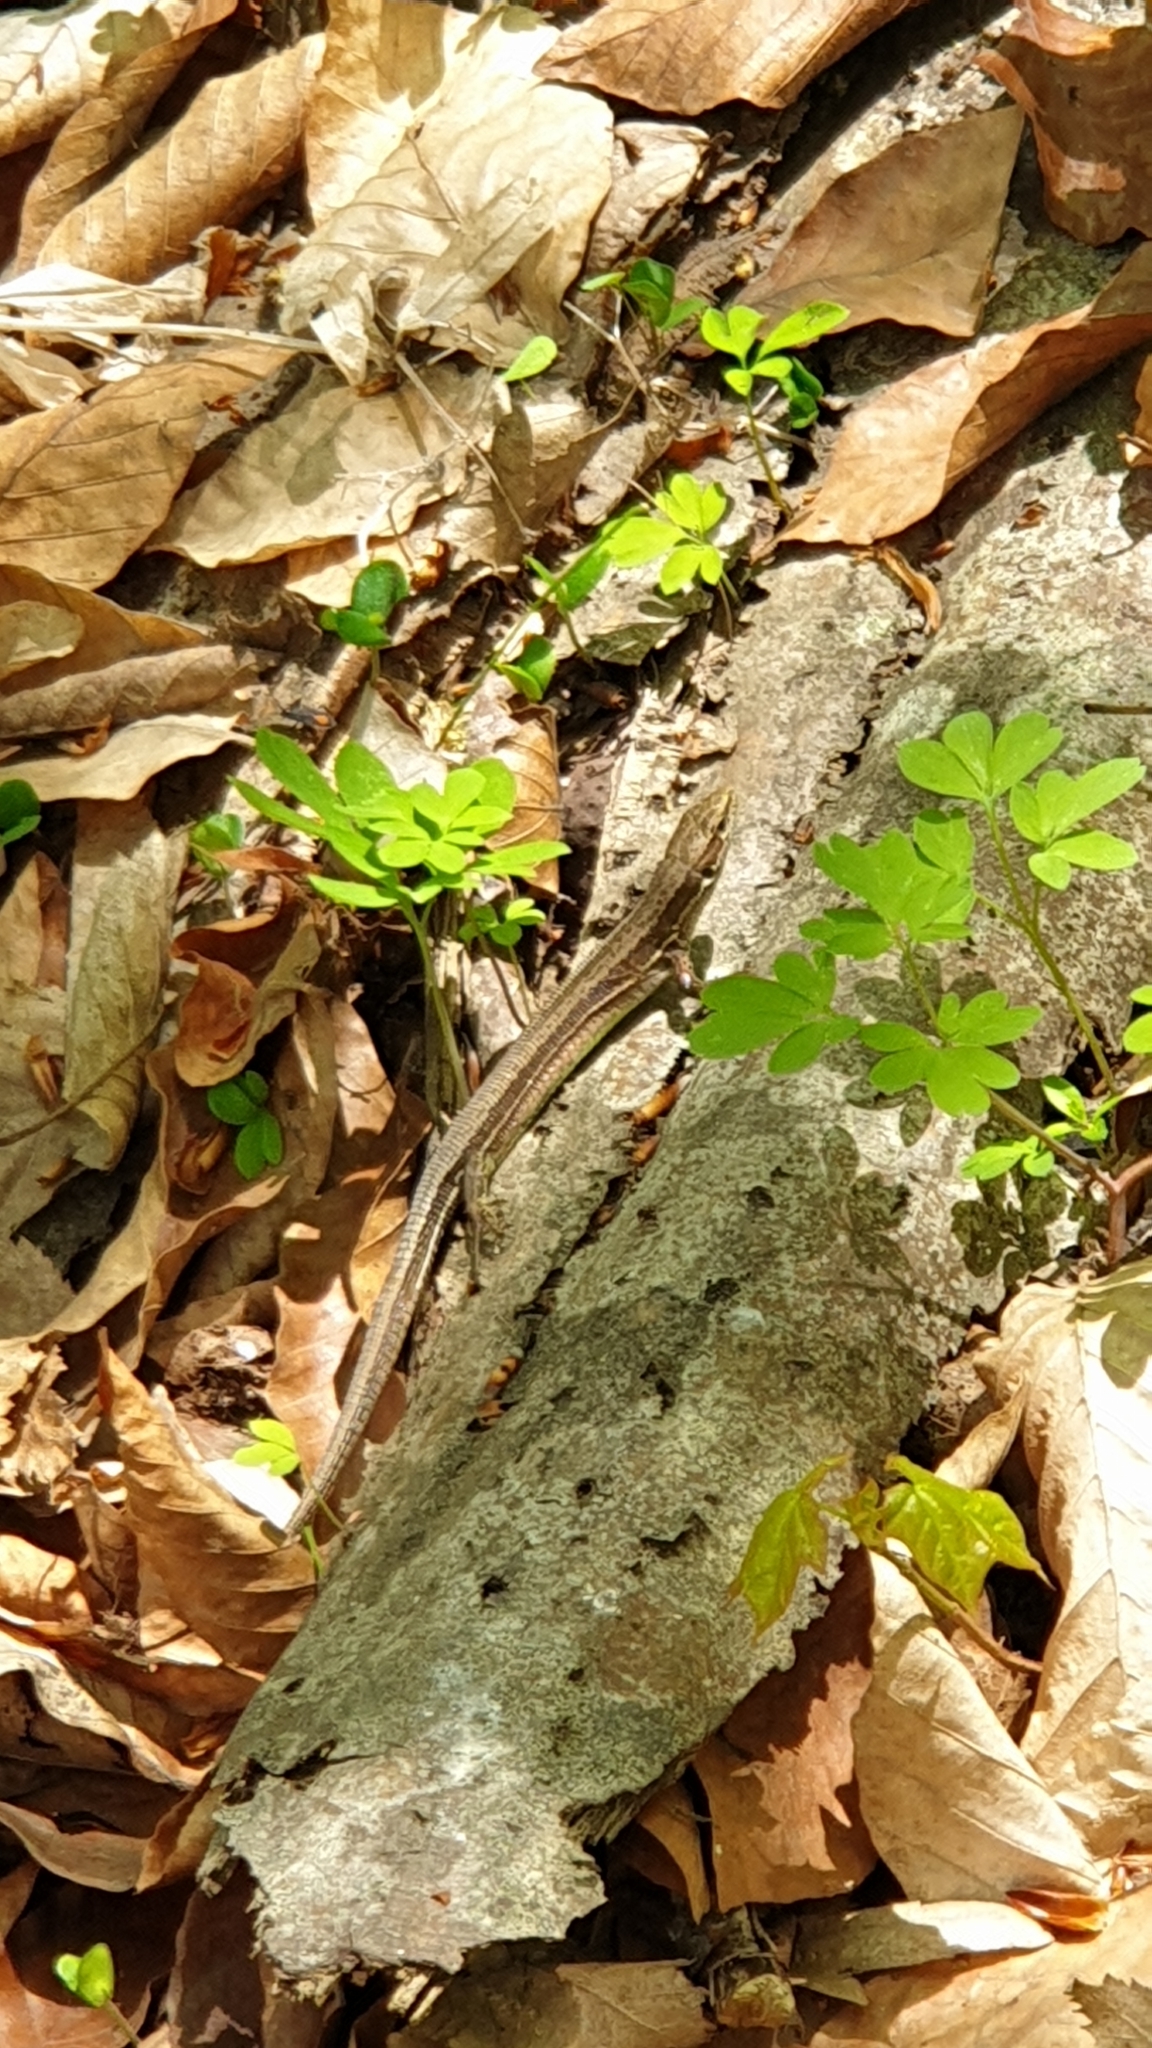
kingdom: Animalia
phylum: Chordata
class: Squamata
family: Lacertidae
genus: Darevskia
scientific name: Darevskia praticola
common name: Meadow lizard
